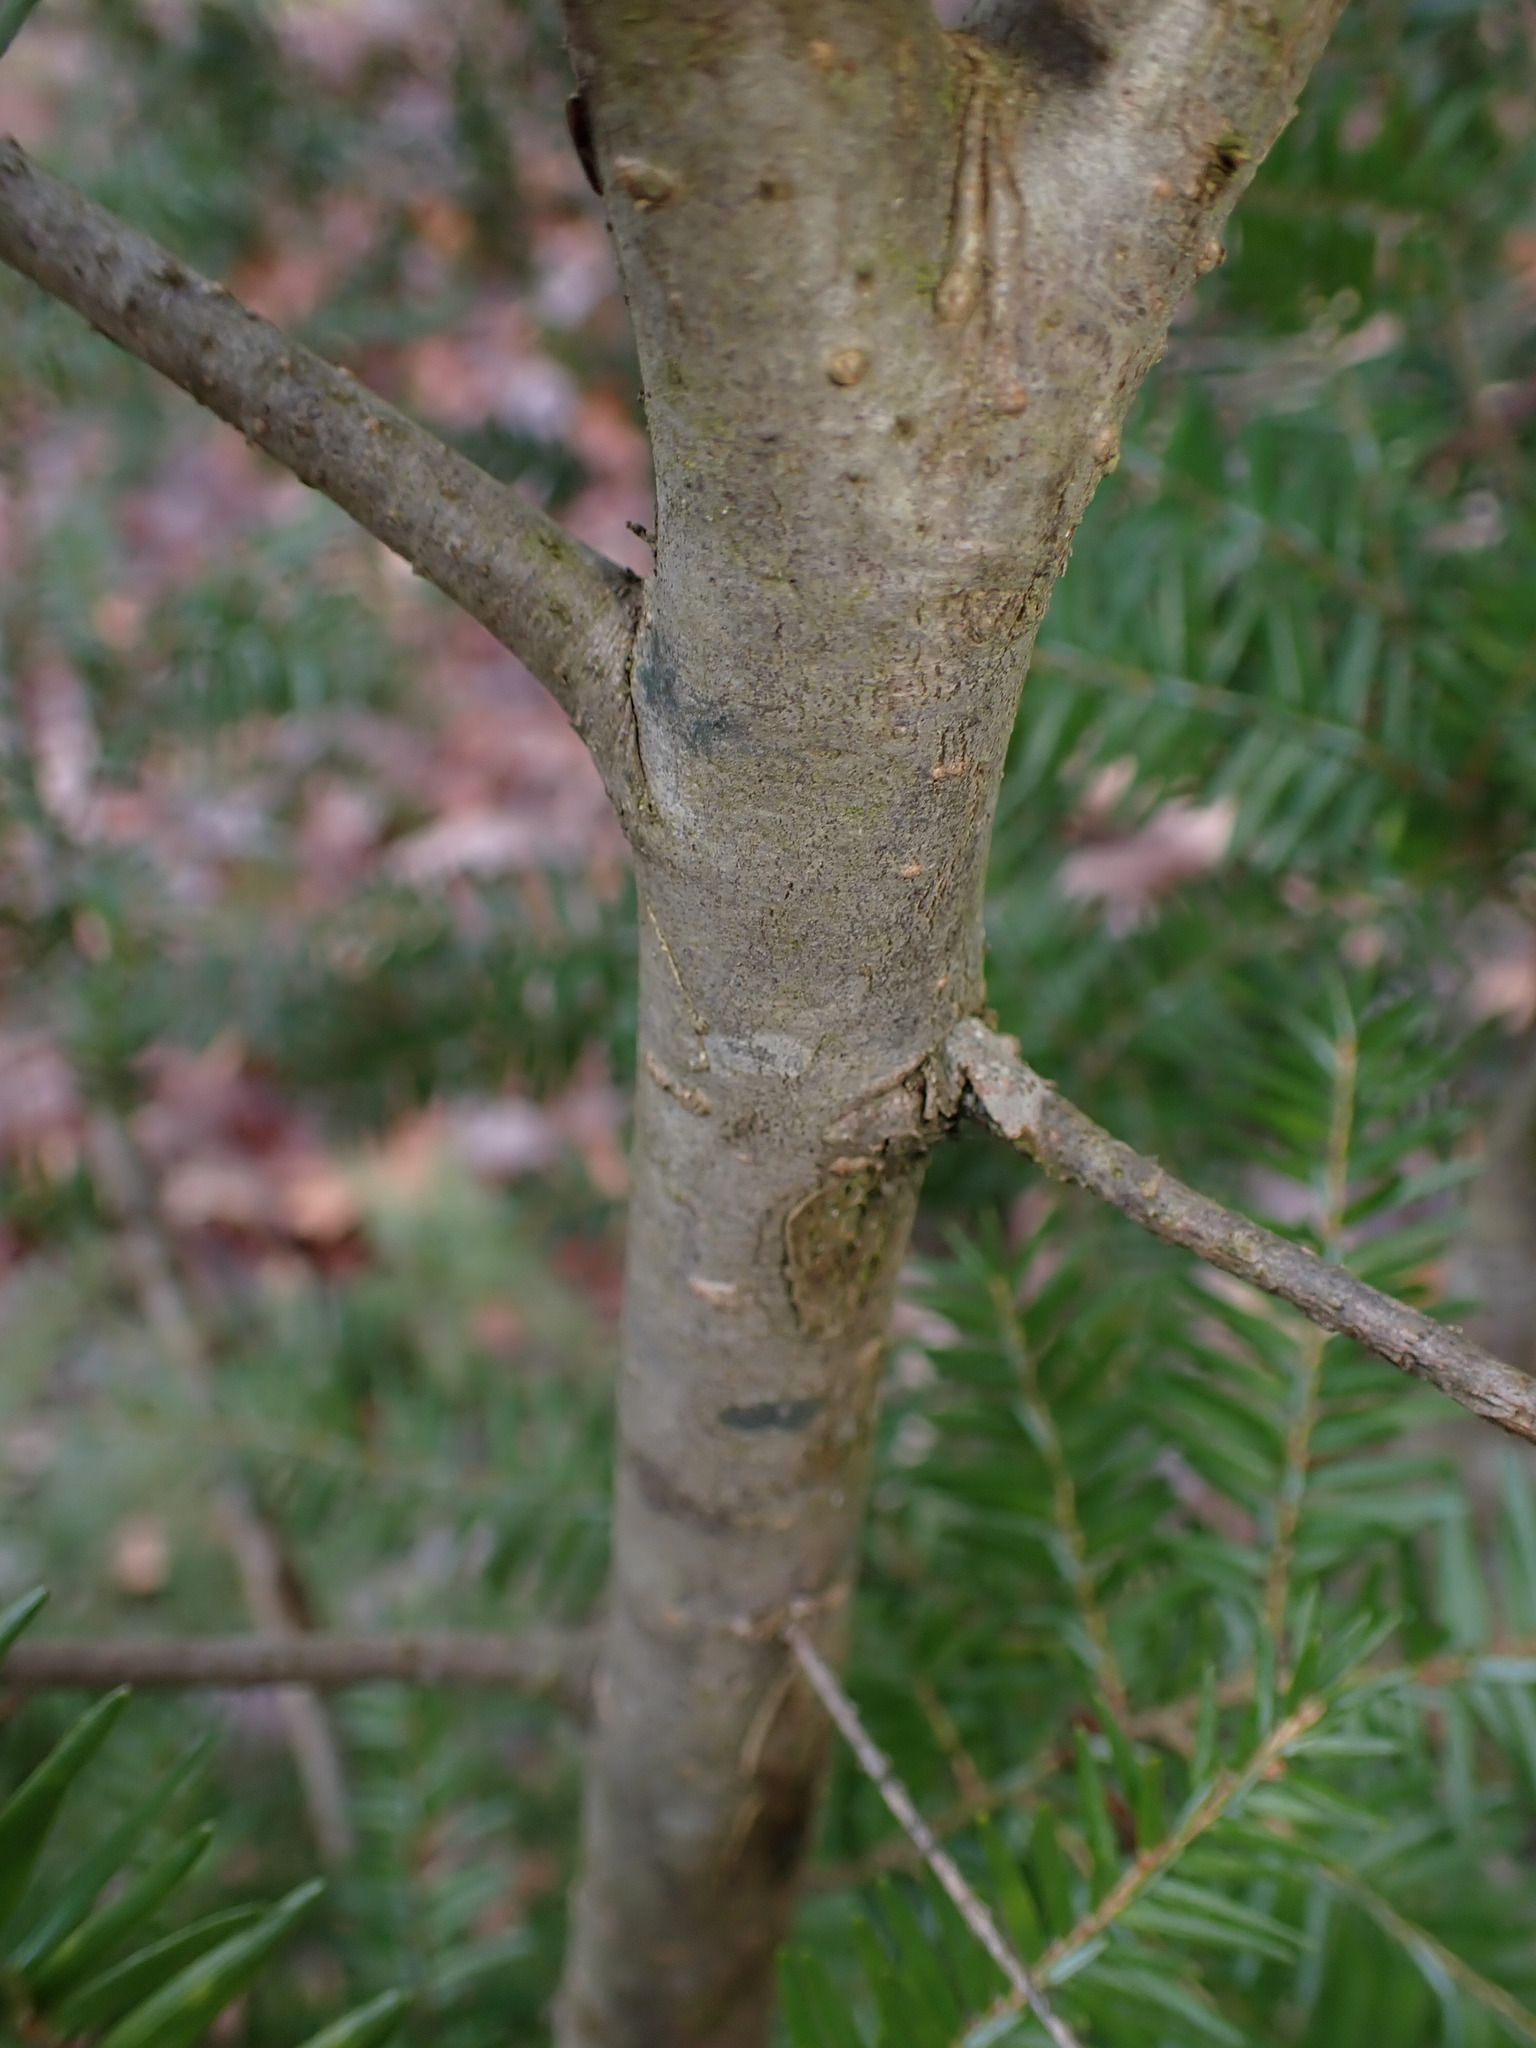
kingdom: Plantae
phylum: Tracheophyta
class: Pinopsida
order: Pinales
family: Pinaceae
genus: Tsuga
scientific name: Tsuga canadensis
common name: Eastern hemlock
